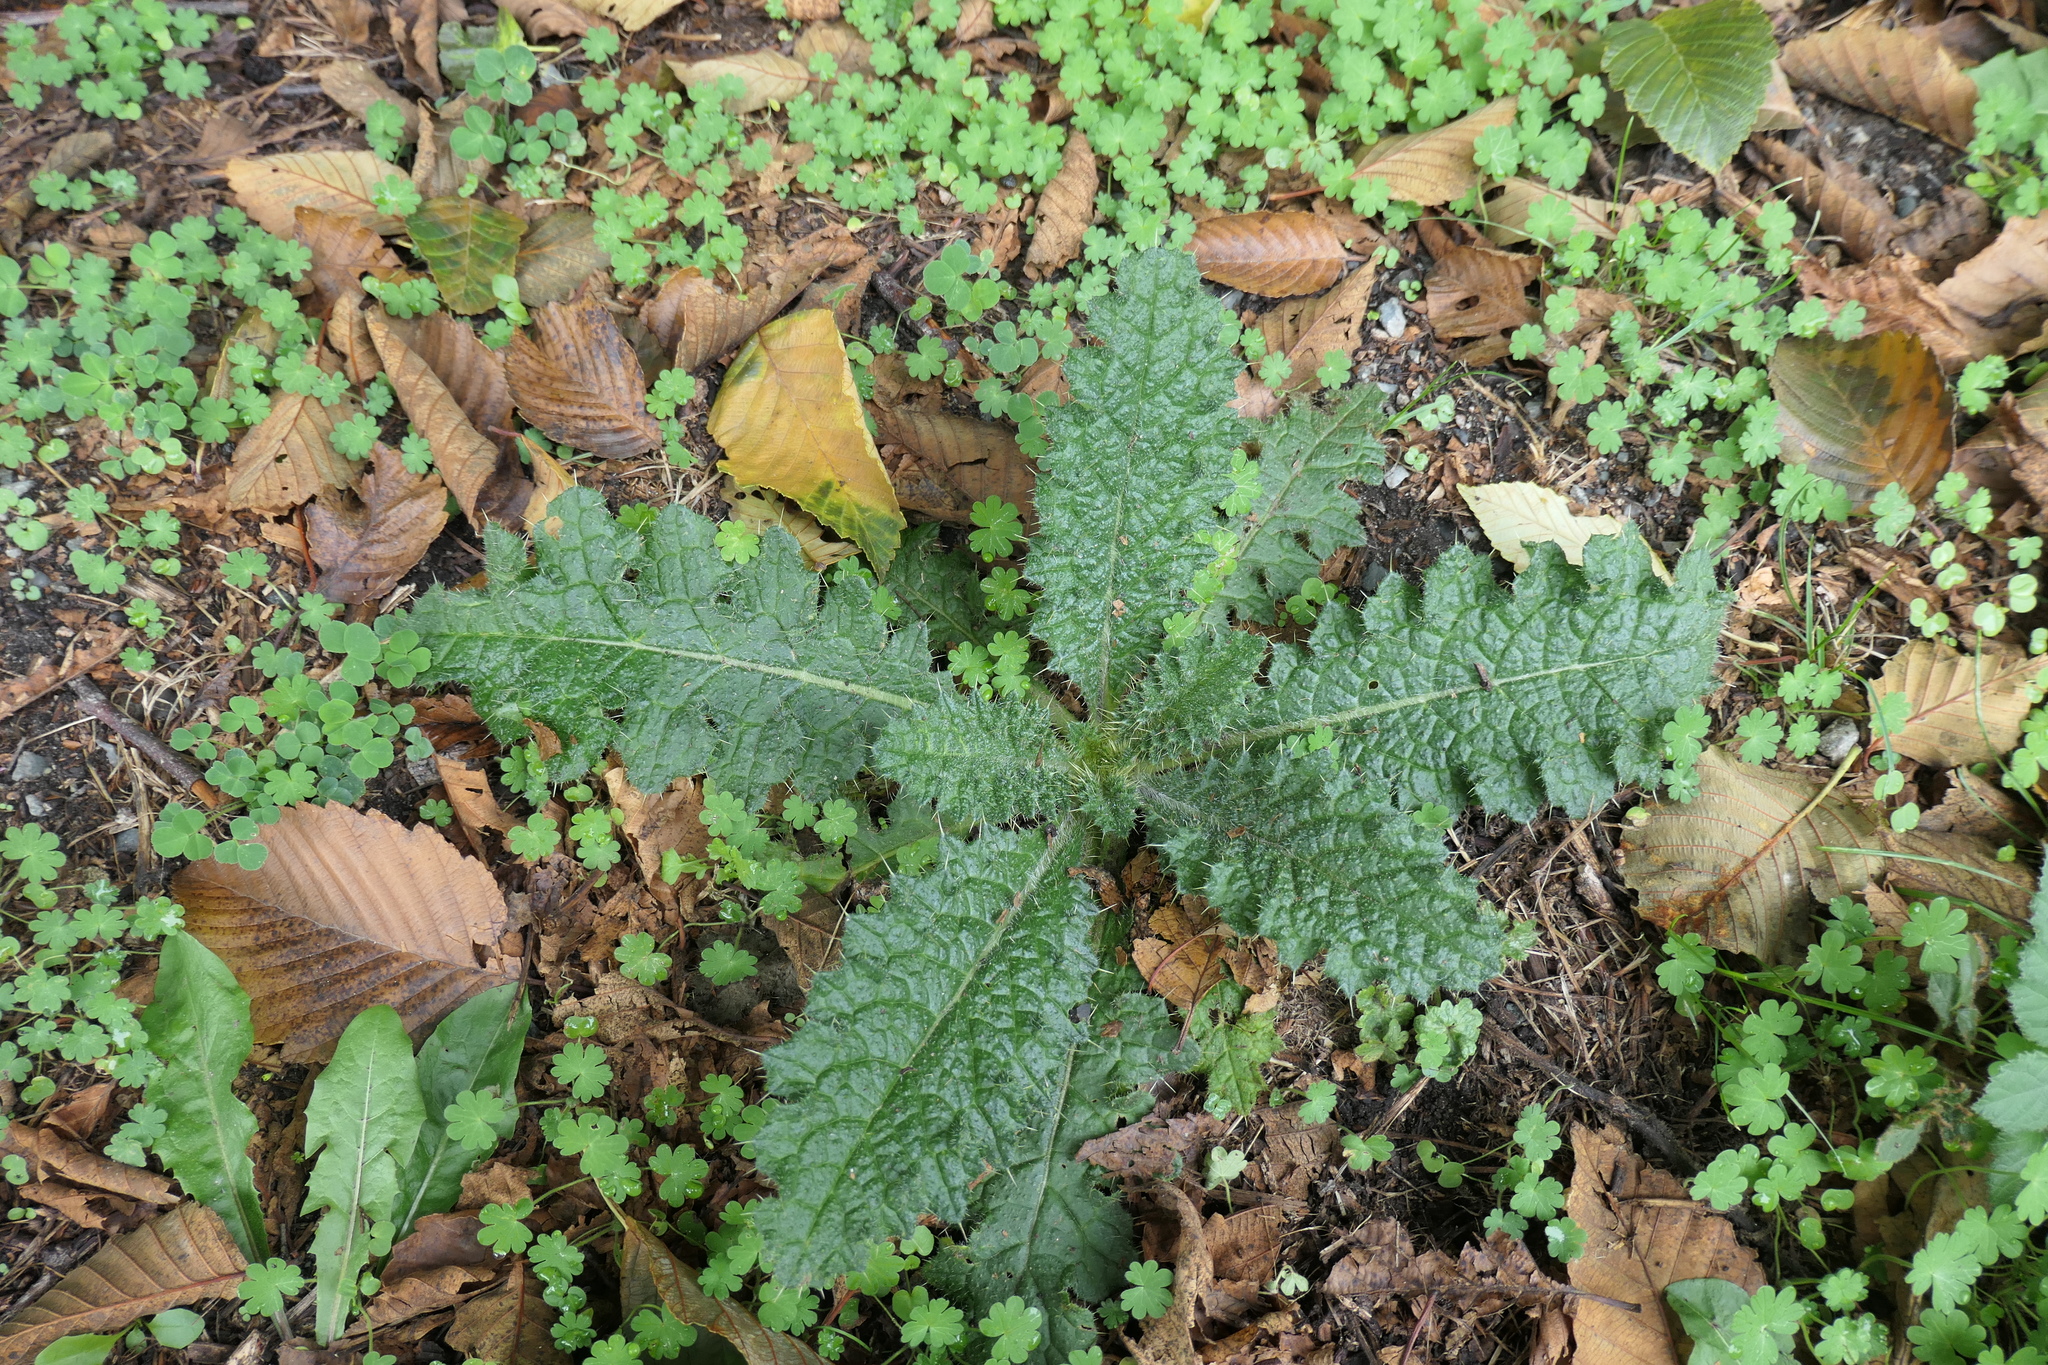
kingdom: Plantae
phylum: Tracheophyta
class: Magnoliopsida
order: Asterales
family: Asteraceae
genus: Cirsium
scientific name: Cirsium vulgare
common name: Bull thistle
